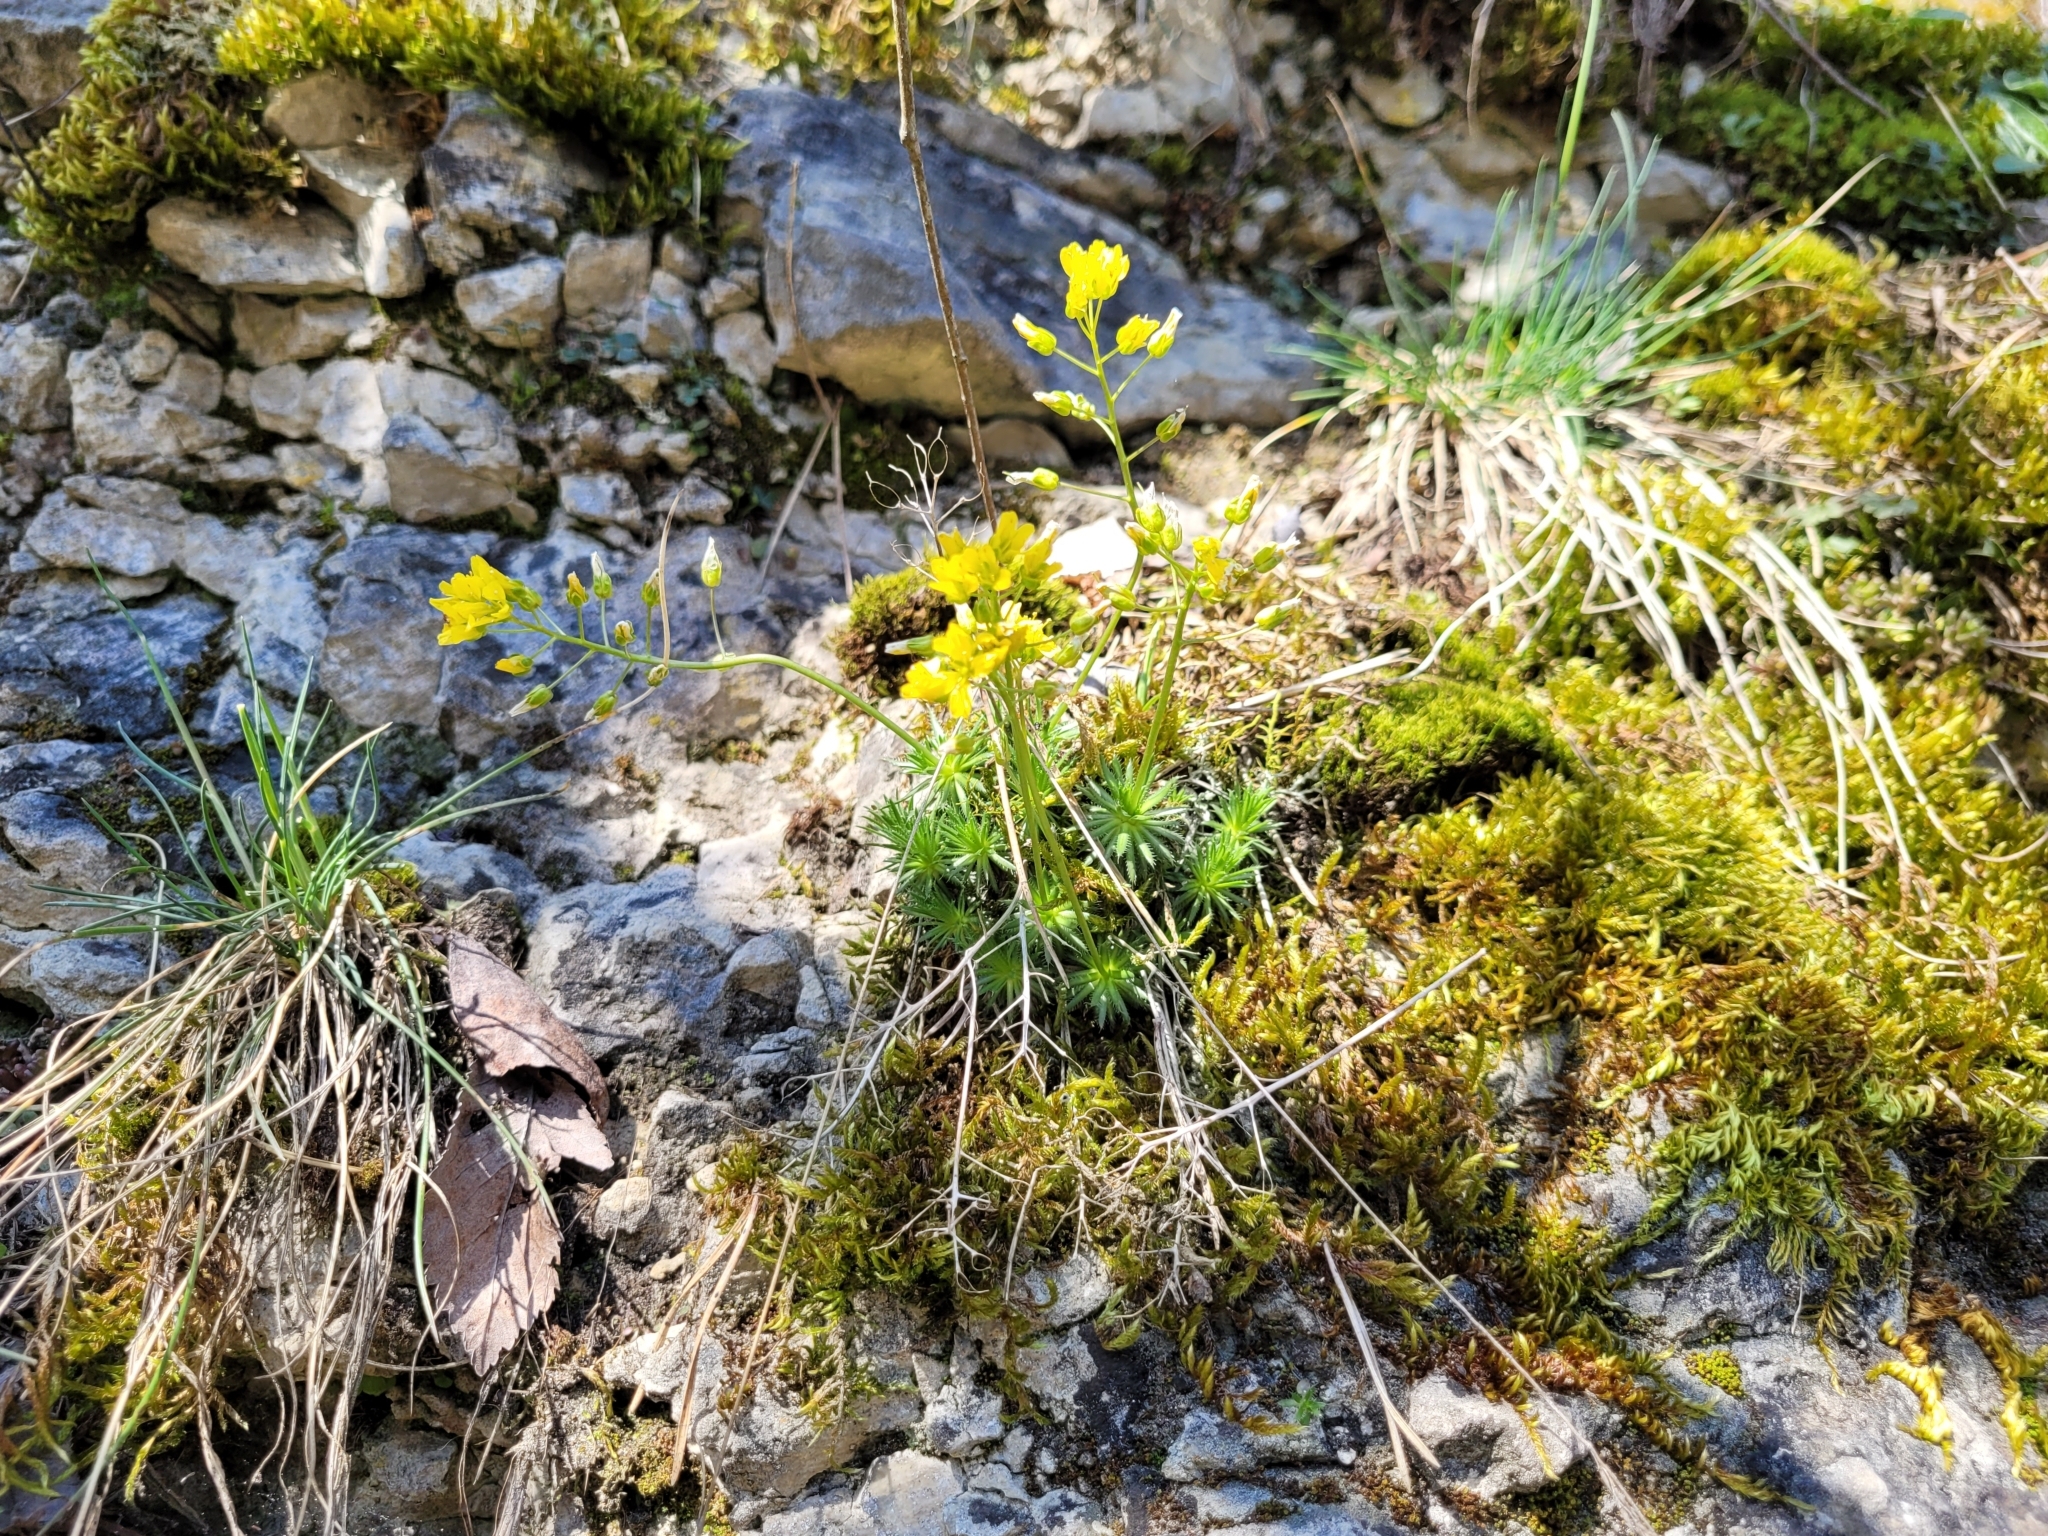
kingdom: Plantae
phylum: Tracheophyta
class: Magnoliopsida
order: Brassicales
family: Brassicaceae
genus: Draba
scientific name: Draba aizoides
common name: Yellow whitlowgrass
